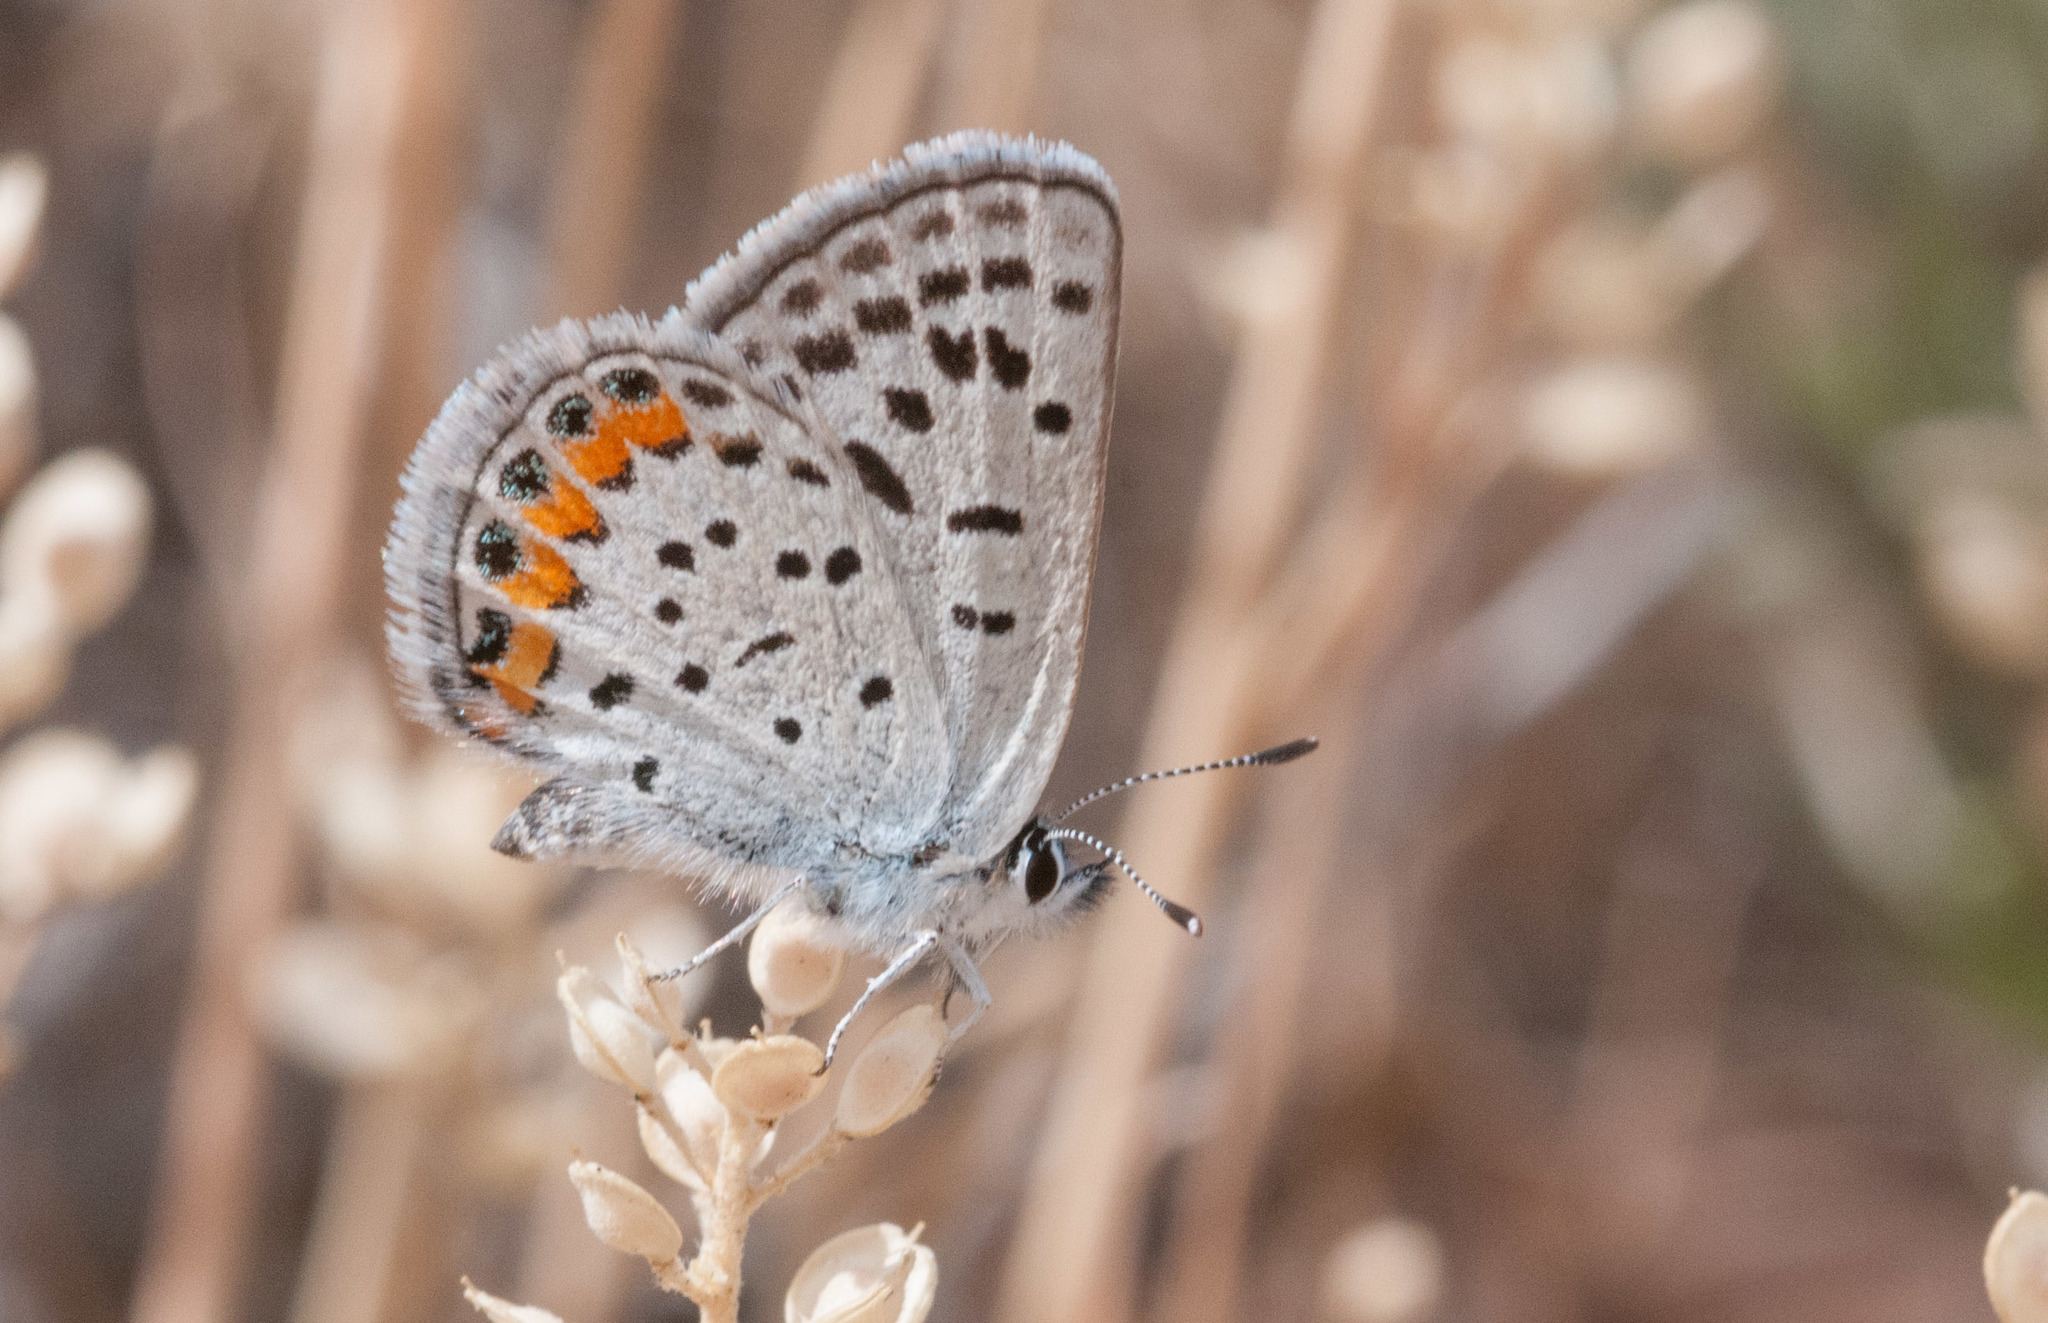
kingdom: Animalia
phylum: Arthropoda
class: Insecta
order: Lepidoptera
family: Lycaenidae
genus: Icaricia
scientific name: Icaricia lupini
